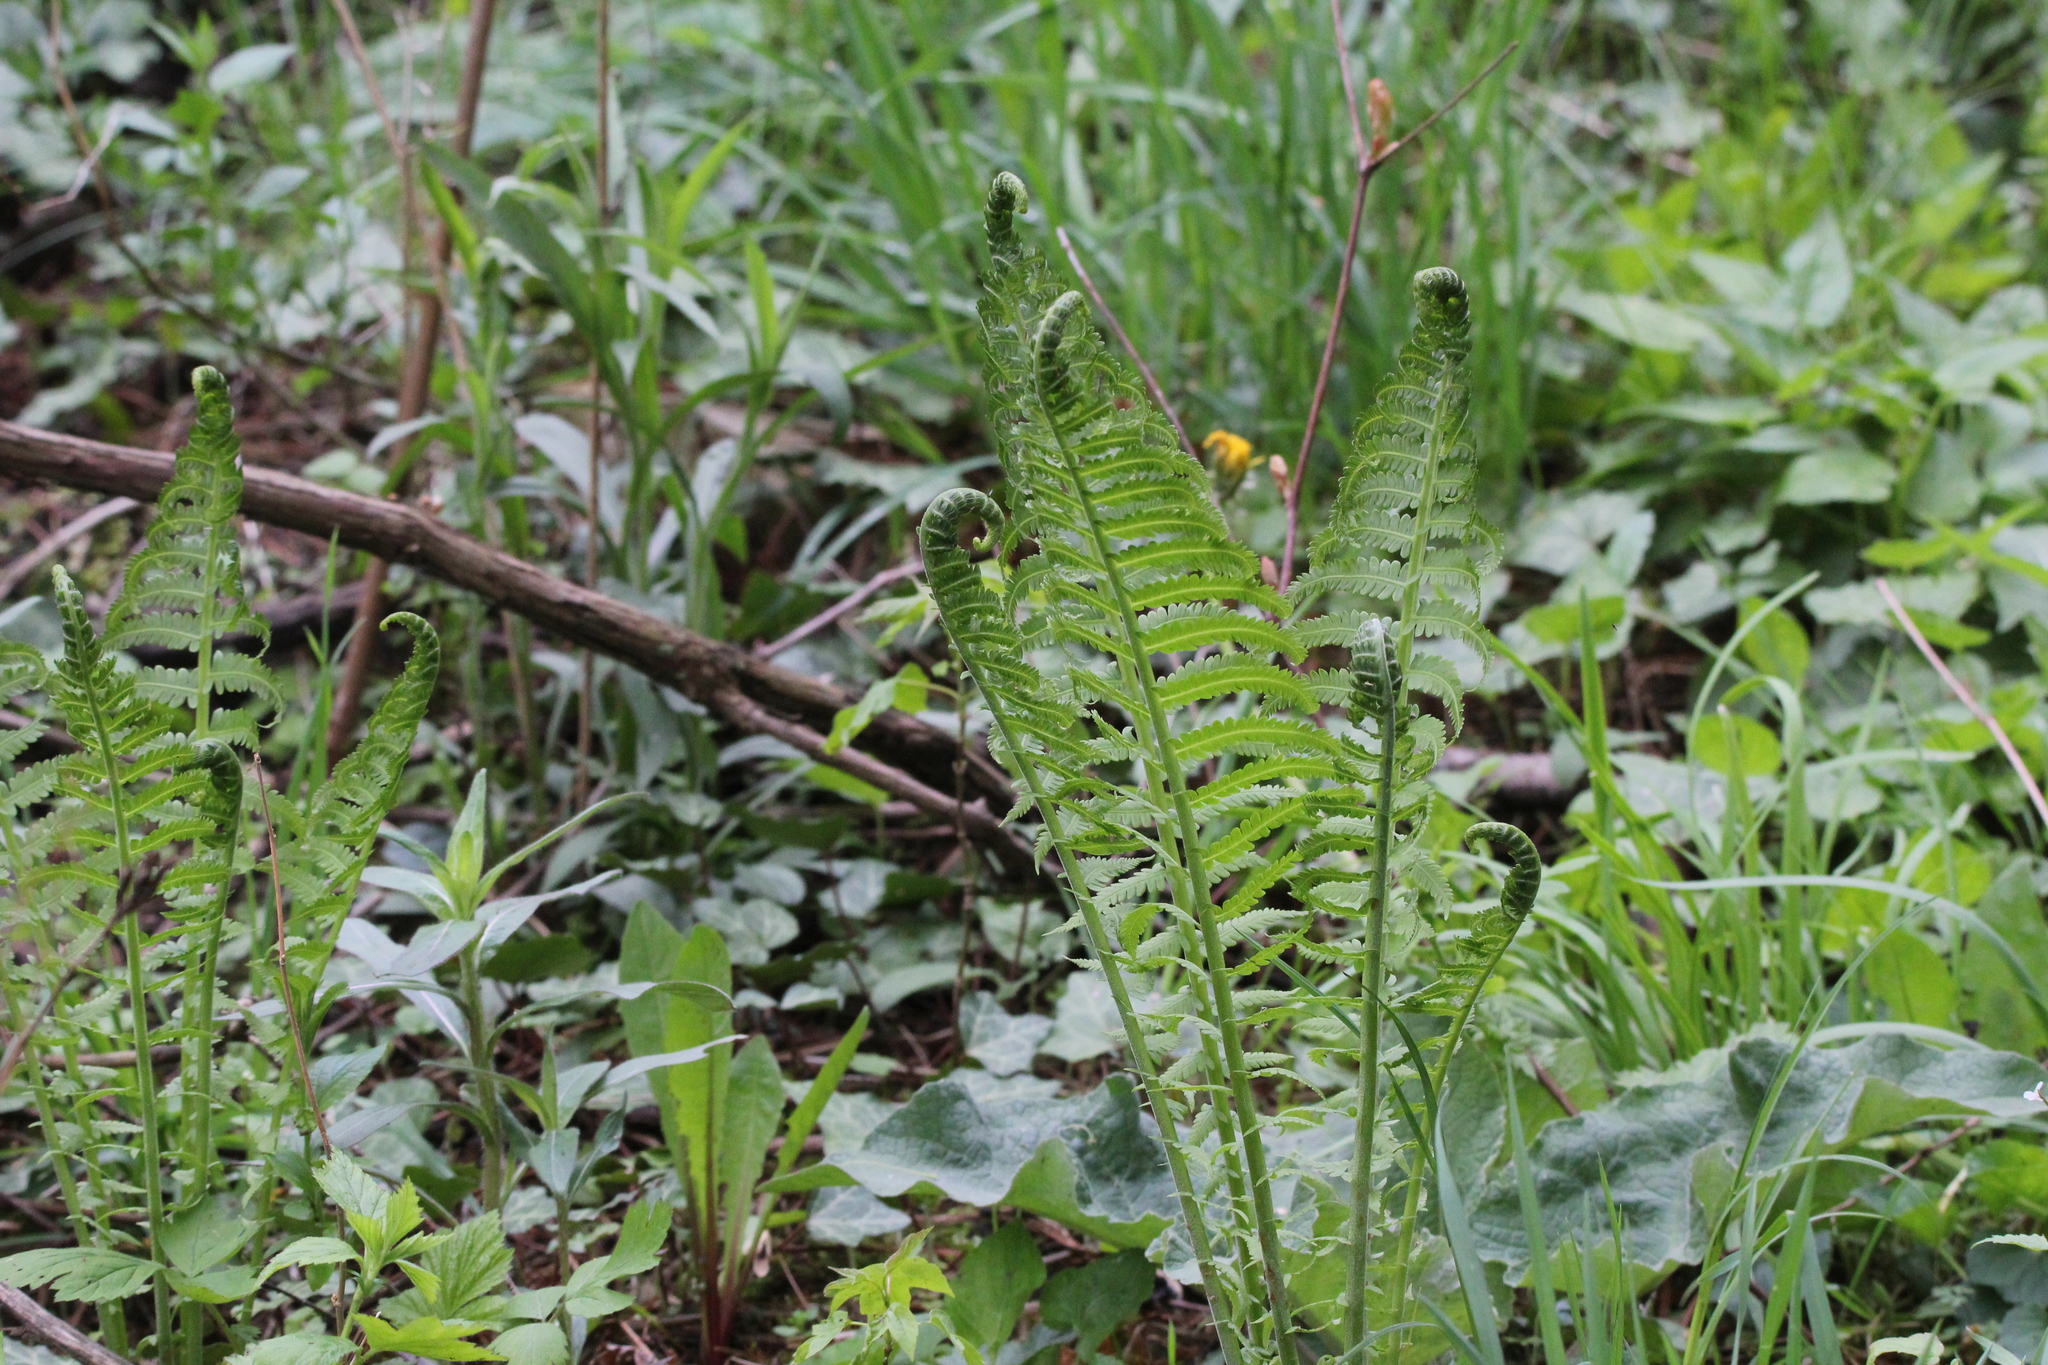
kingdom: Plantae
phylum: Tracheophyta
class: Polypodiopsida
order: Polypodiales
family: Onocleaceae
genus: Matteuccia
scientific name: Matteuccia struthiopteris
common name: Ostrich fern
